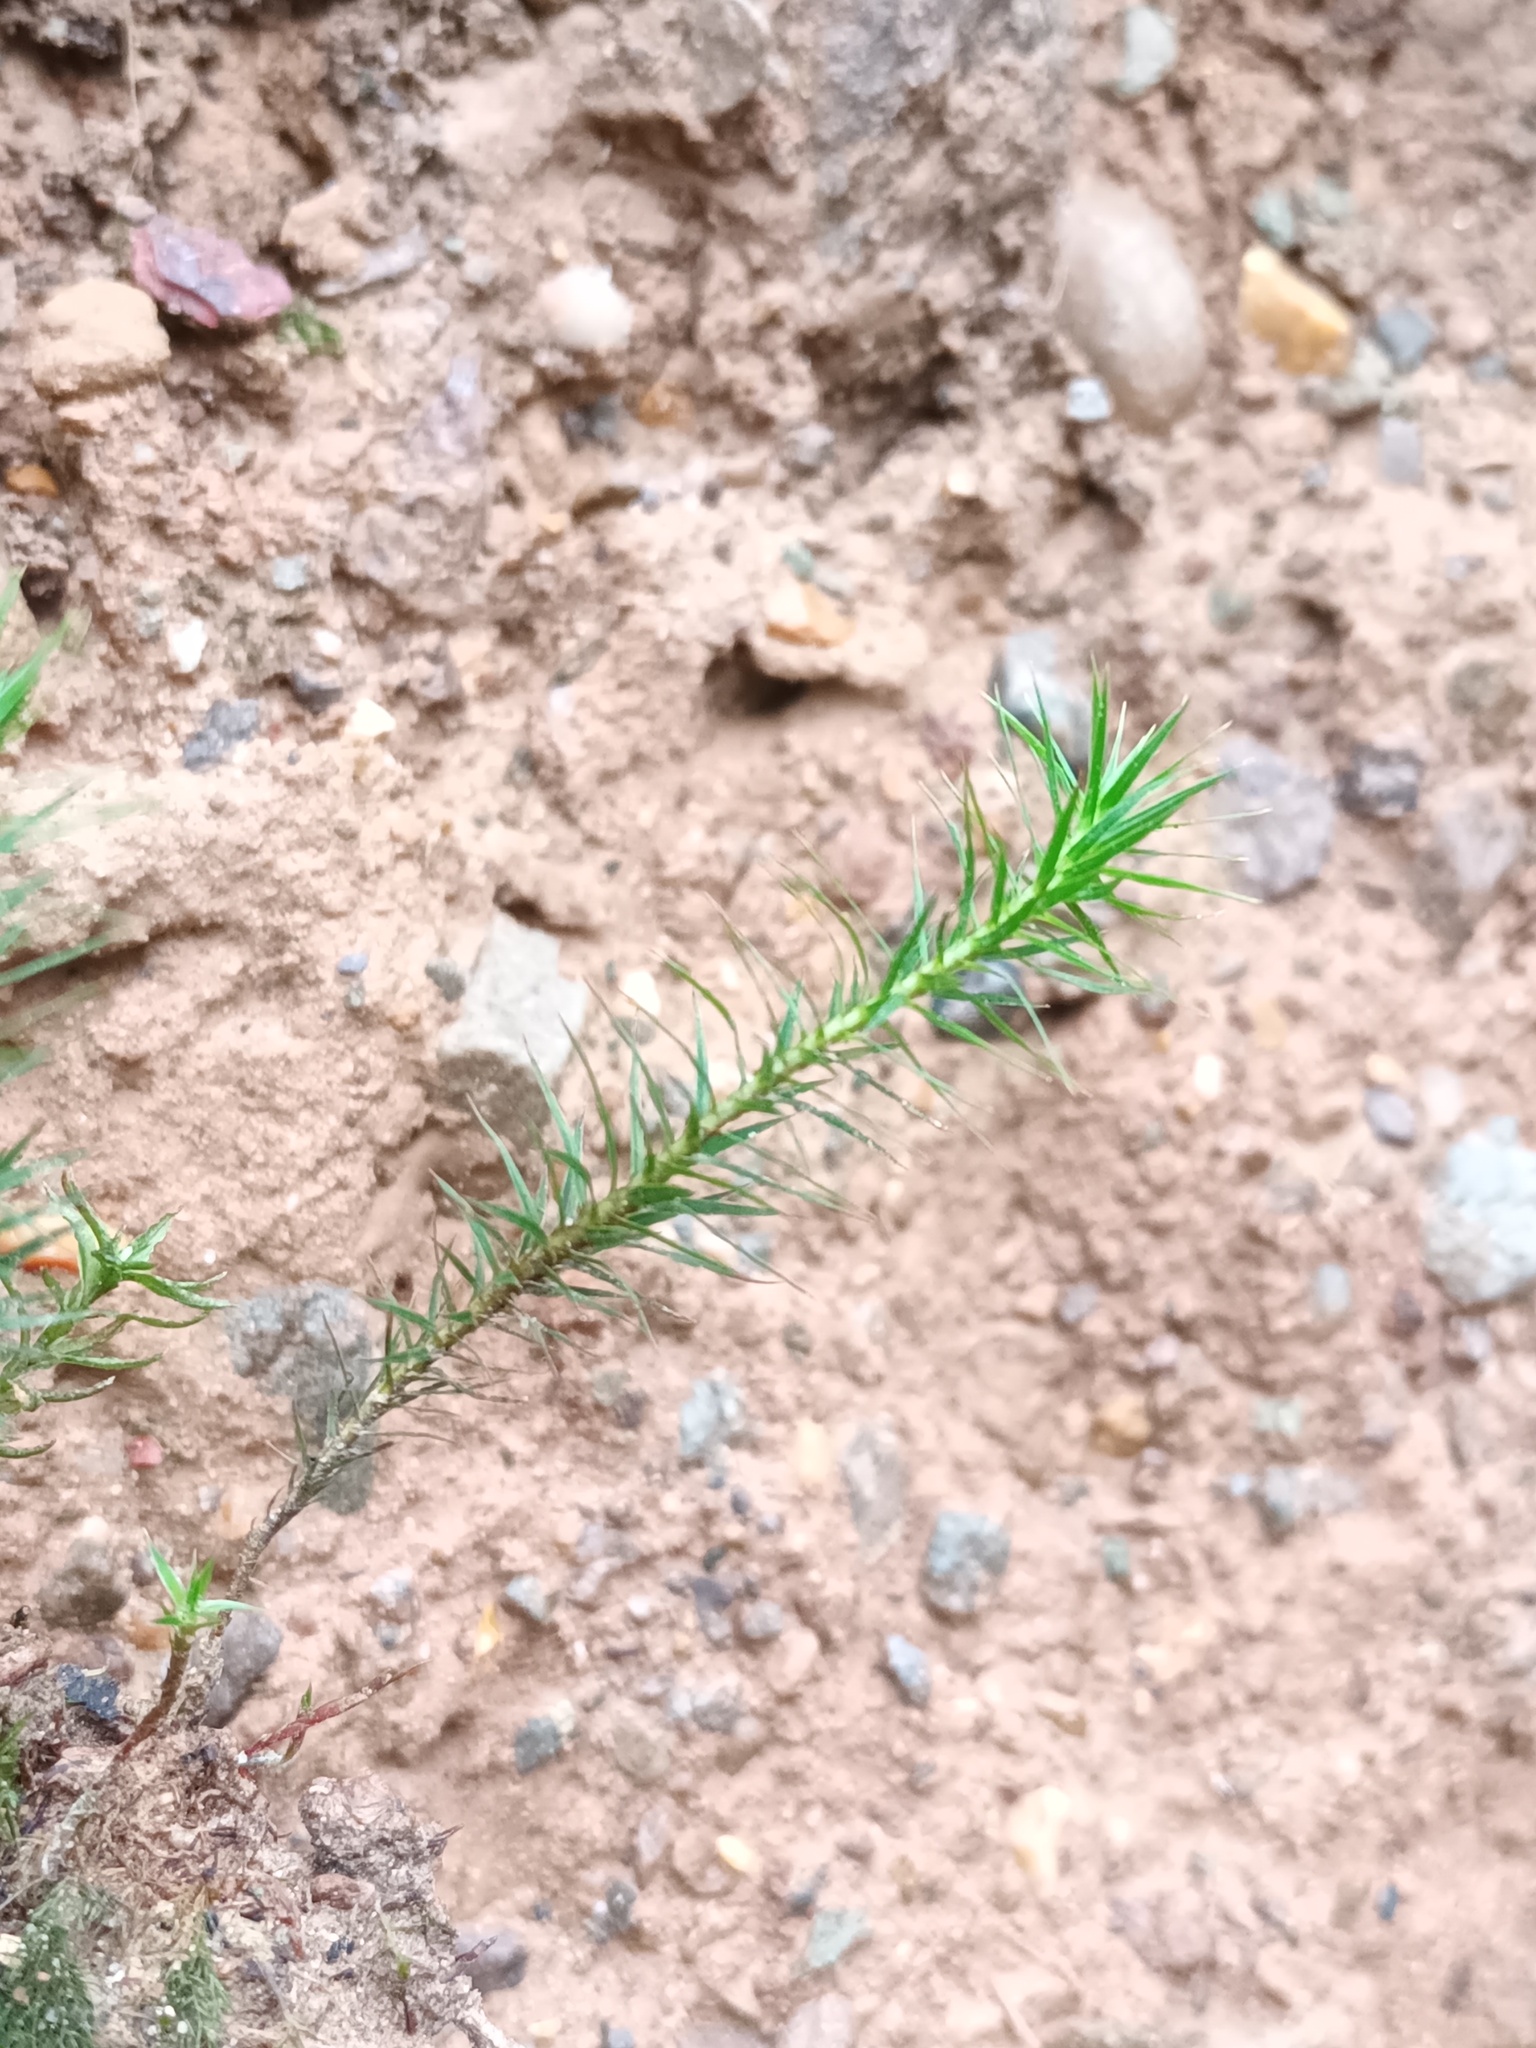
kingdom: Plantae
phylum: Bryophyta
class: Polytrichopsida
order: Polytrichales
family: Polytrichaceae
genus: Polytrichum
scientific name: Polytrichum formosum
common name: Bank haircap moss
